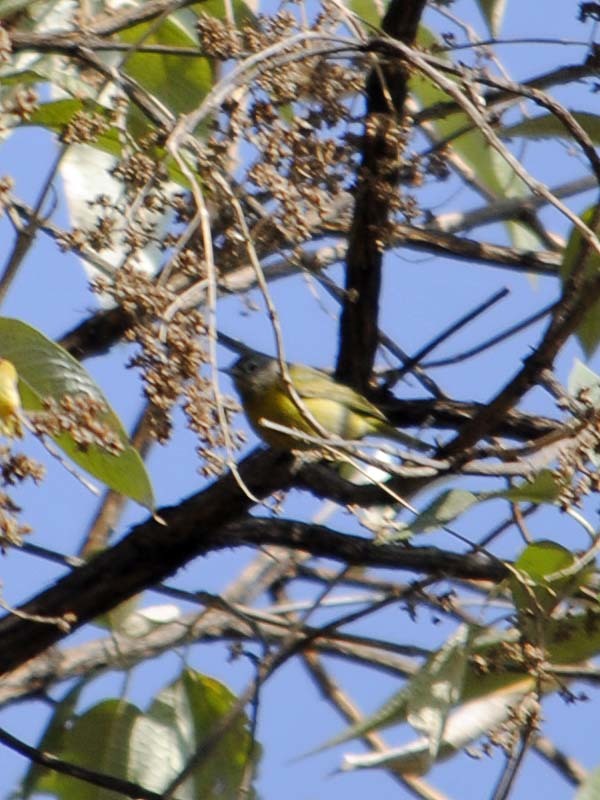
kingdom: Animalia
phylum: Chordata
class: Aves
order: Passeriformes
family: Parulidae
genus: Leiothlypis
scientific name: Leiothlypis ruficapilla
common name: Nashville warbler
